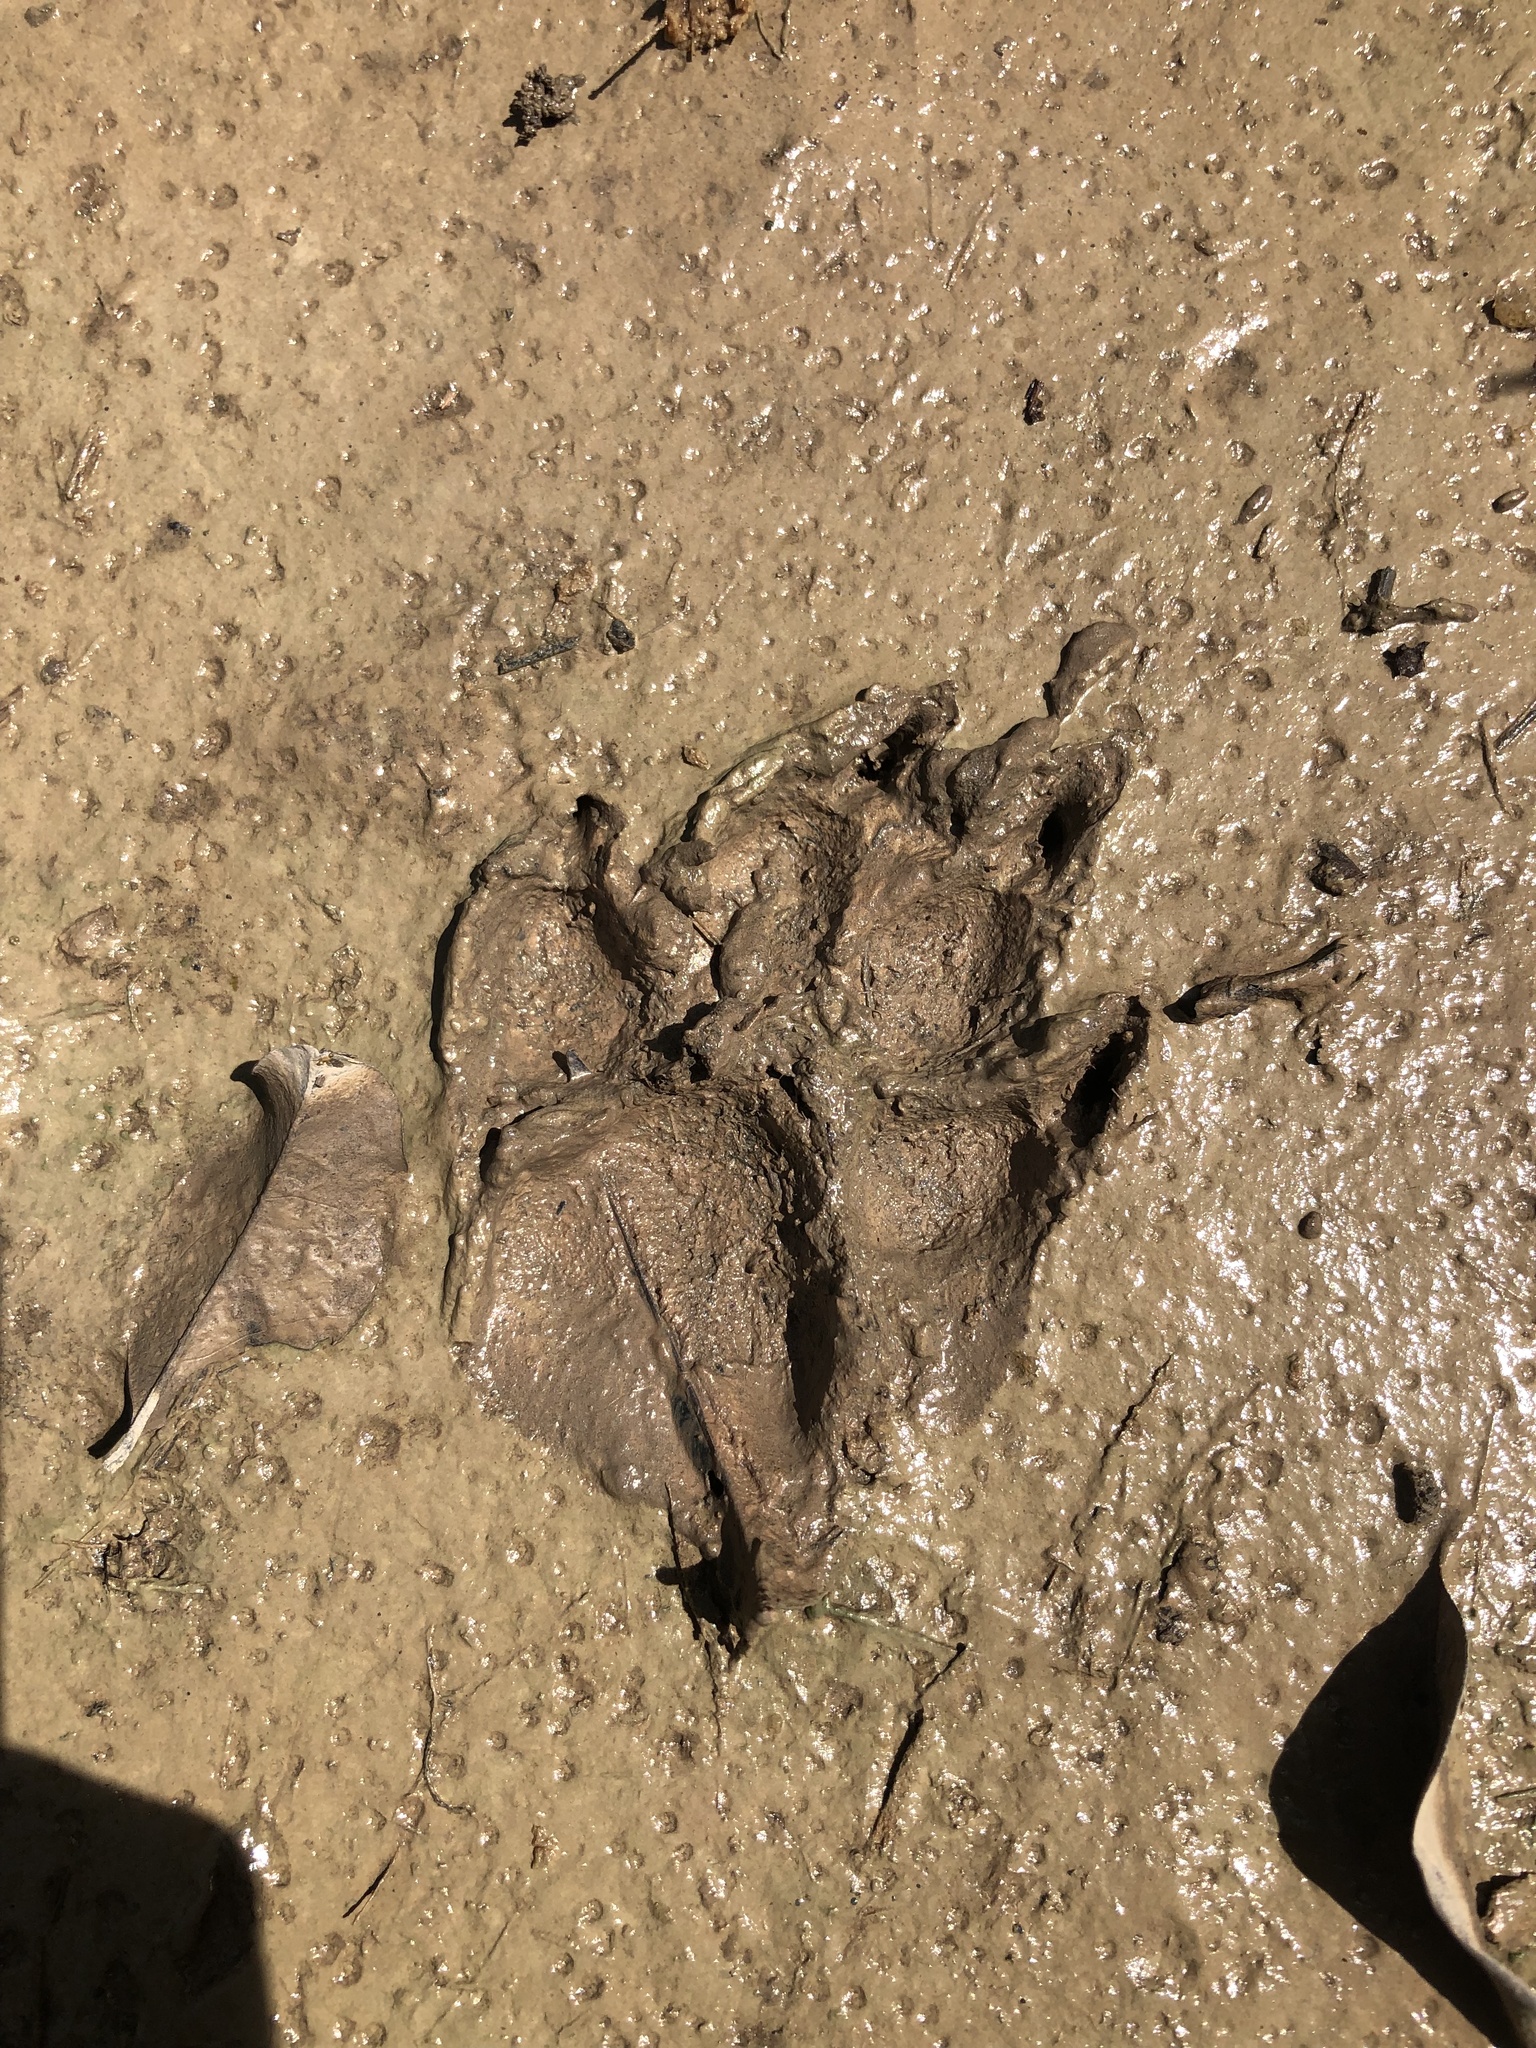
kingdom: Animalia
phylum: Chordata
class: Mammalia
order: Carnivora
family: Canidae
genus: Canis
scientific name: Canis lupus
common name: Gray wolf
